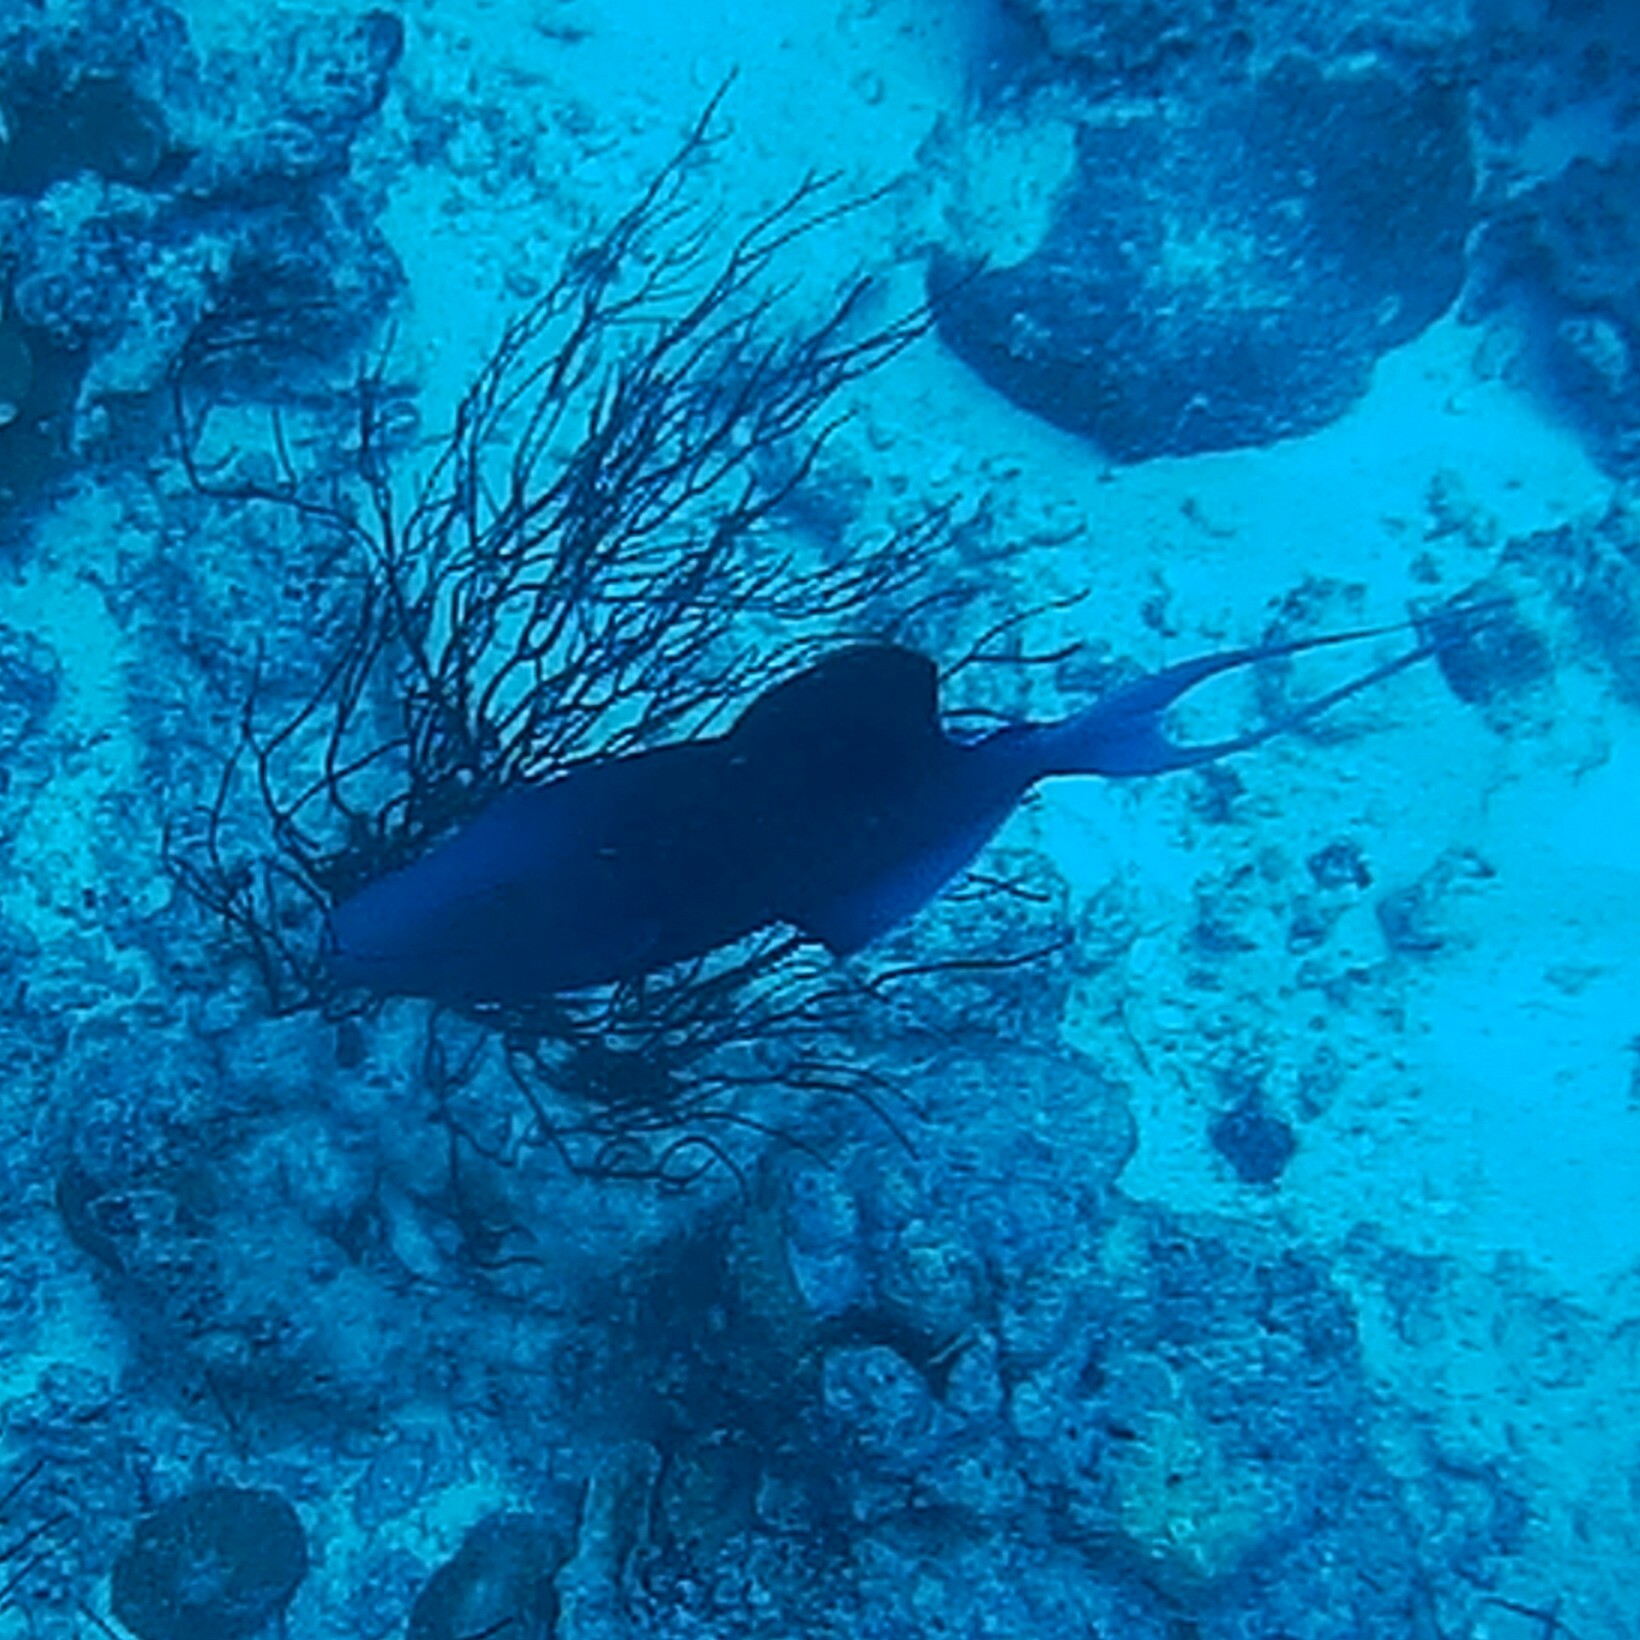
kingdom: Animalia
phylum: Chordata
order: Tetraodontiformes
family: Balistidae
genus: Odonus
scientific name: Odonus niger
